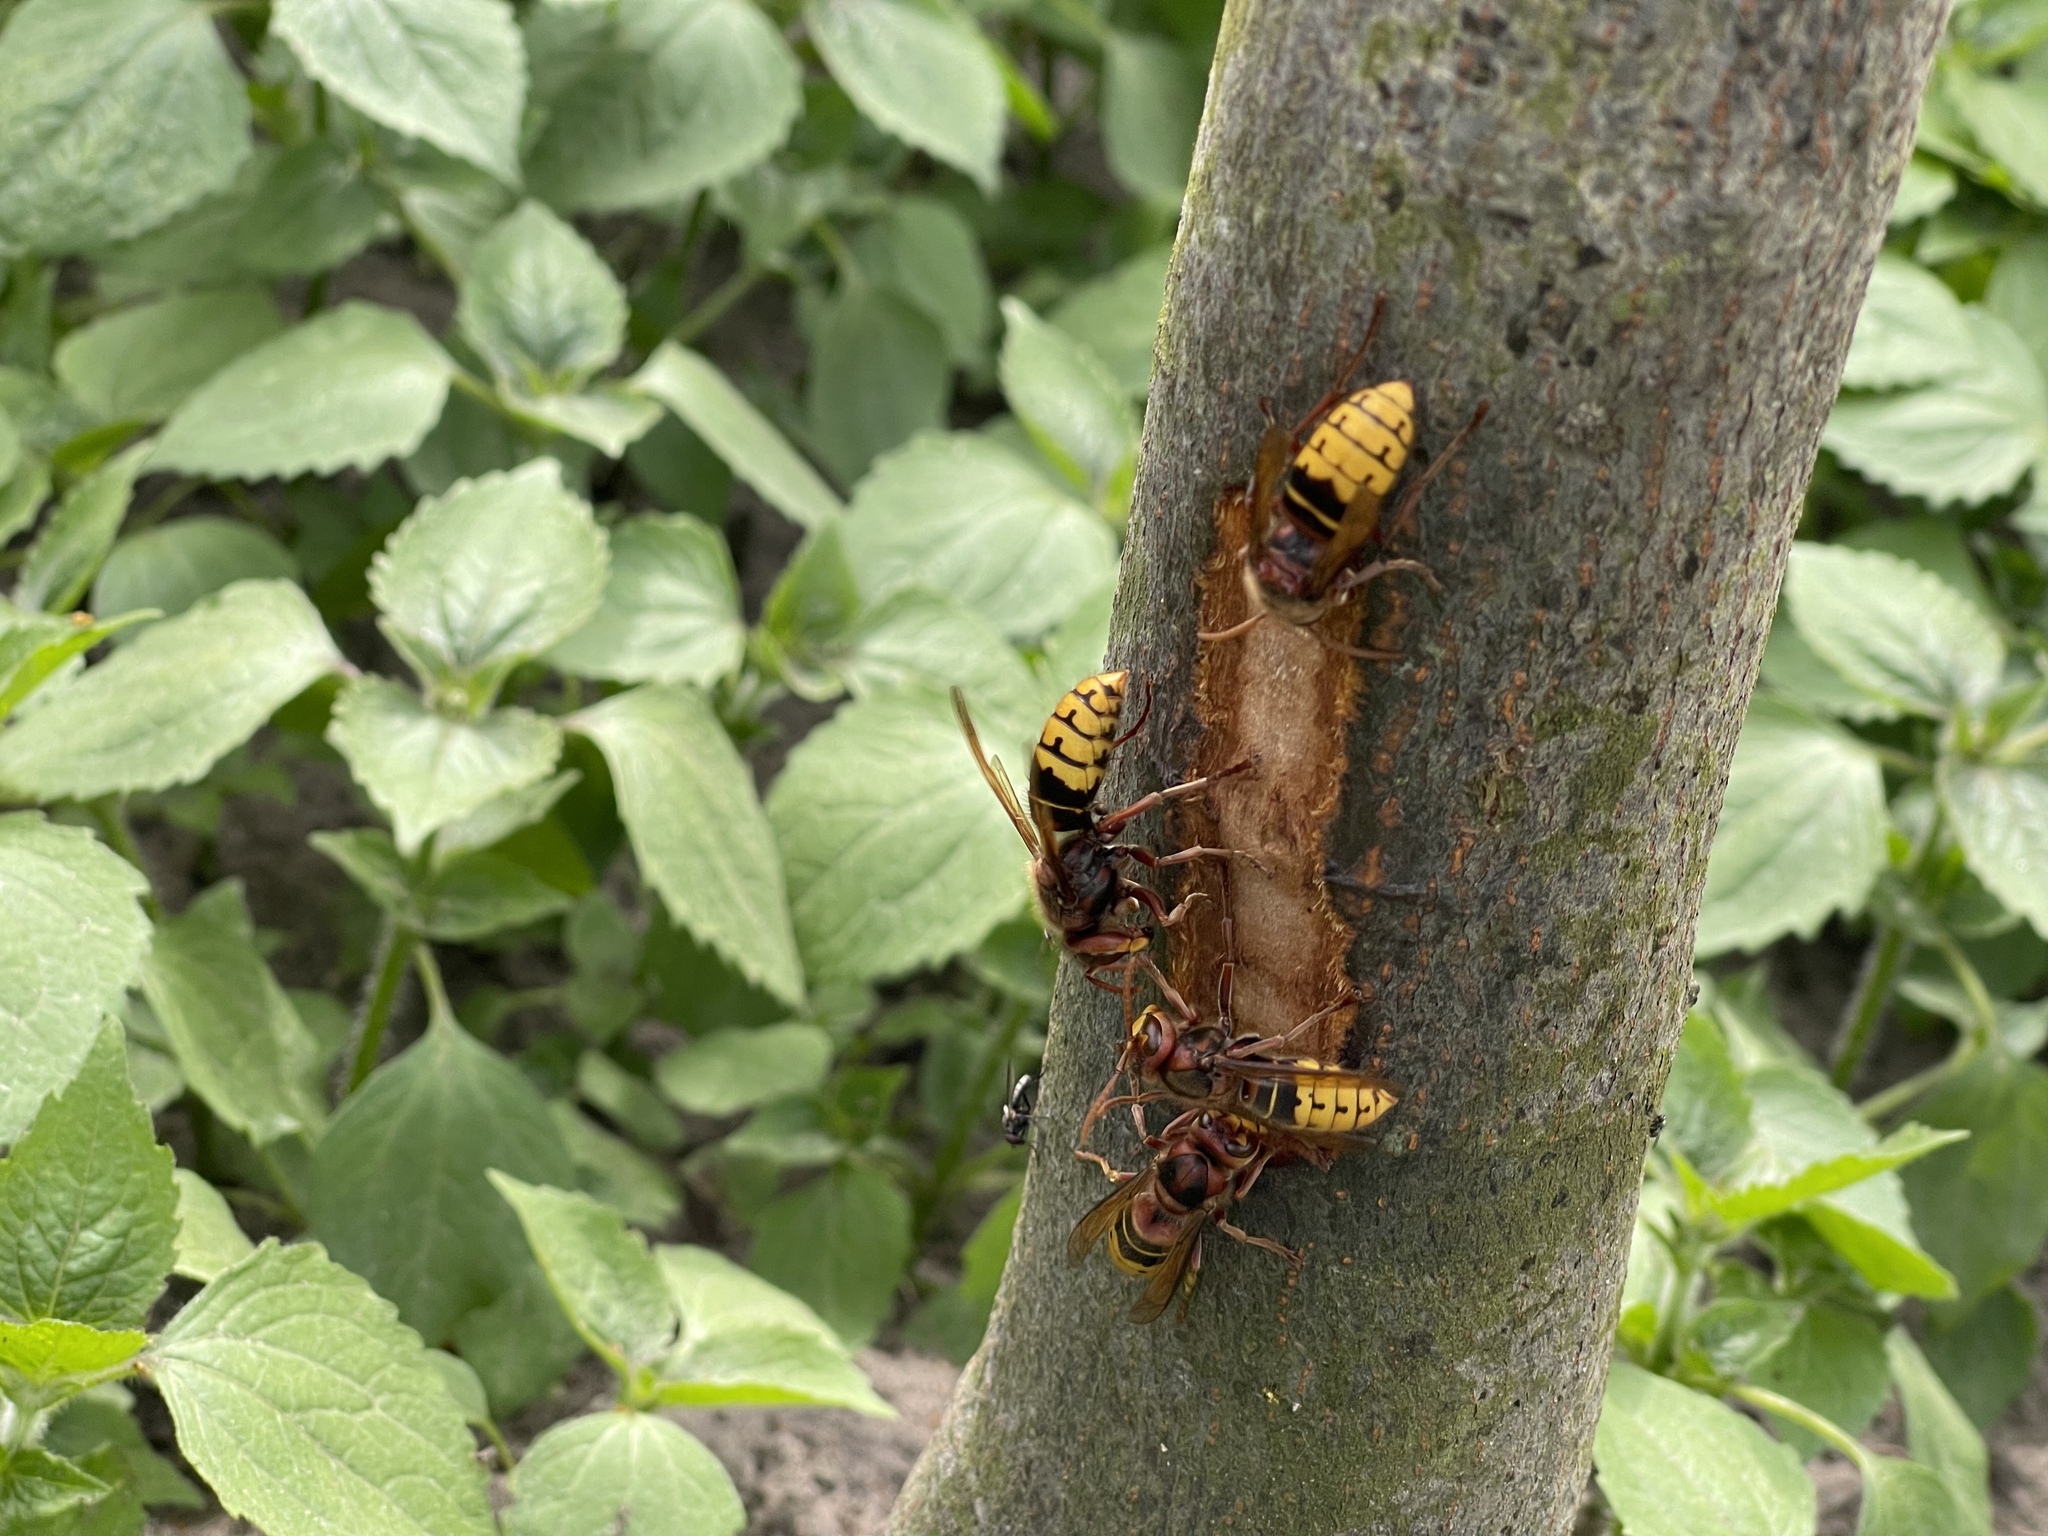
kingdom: Animalia
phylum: Arthropoda
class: Insecta
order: Hymenoptera
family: Vespidae
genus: Vespa
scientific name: Vespa crabro
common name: Hornet
